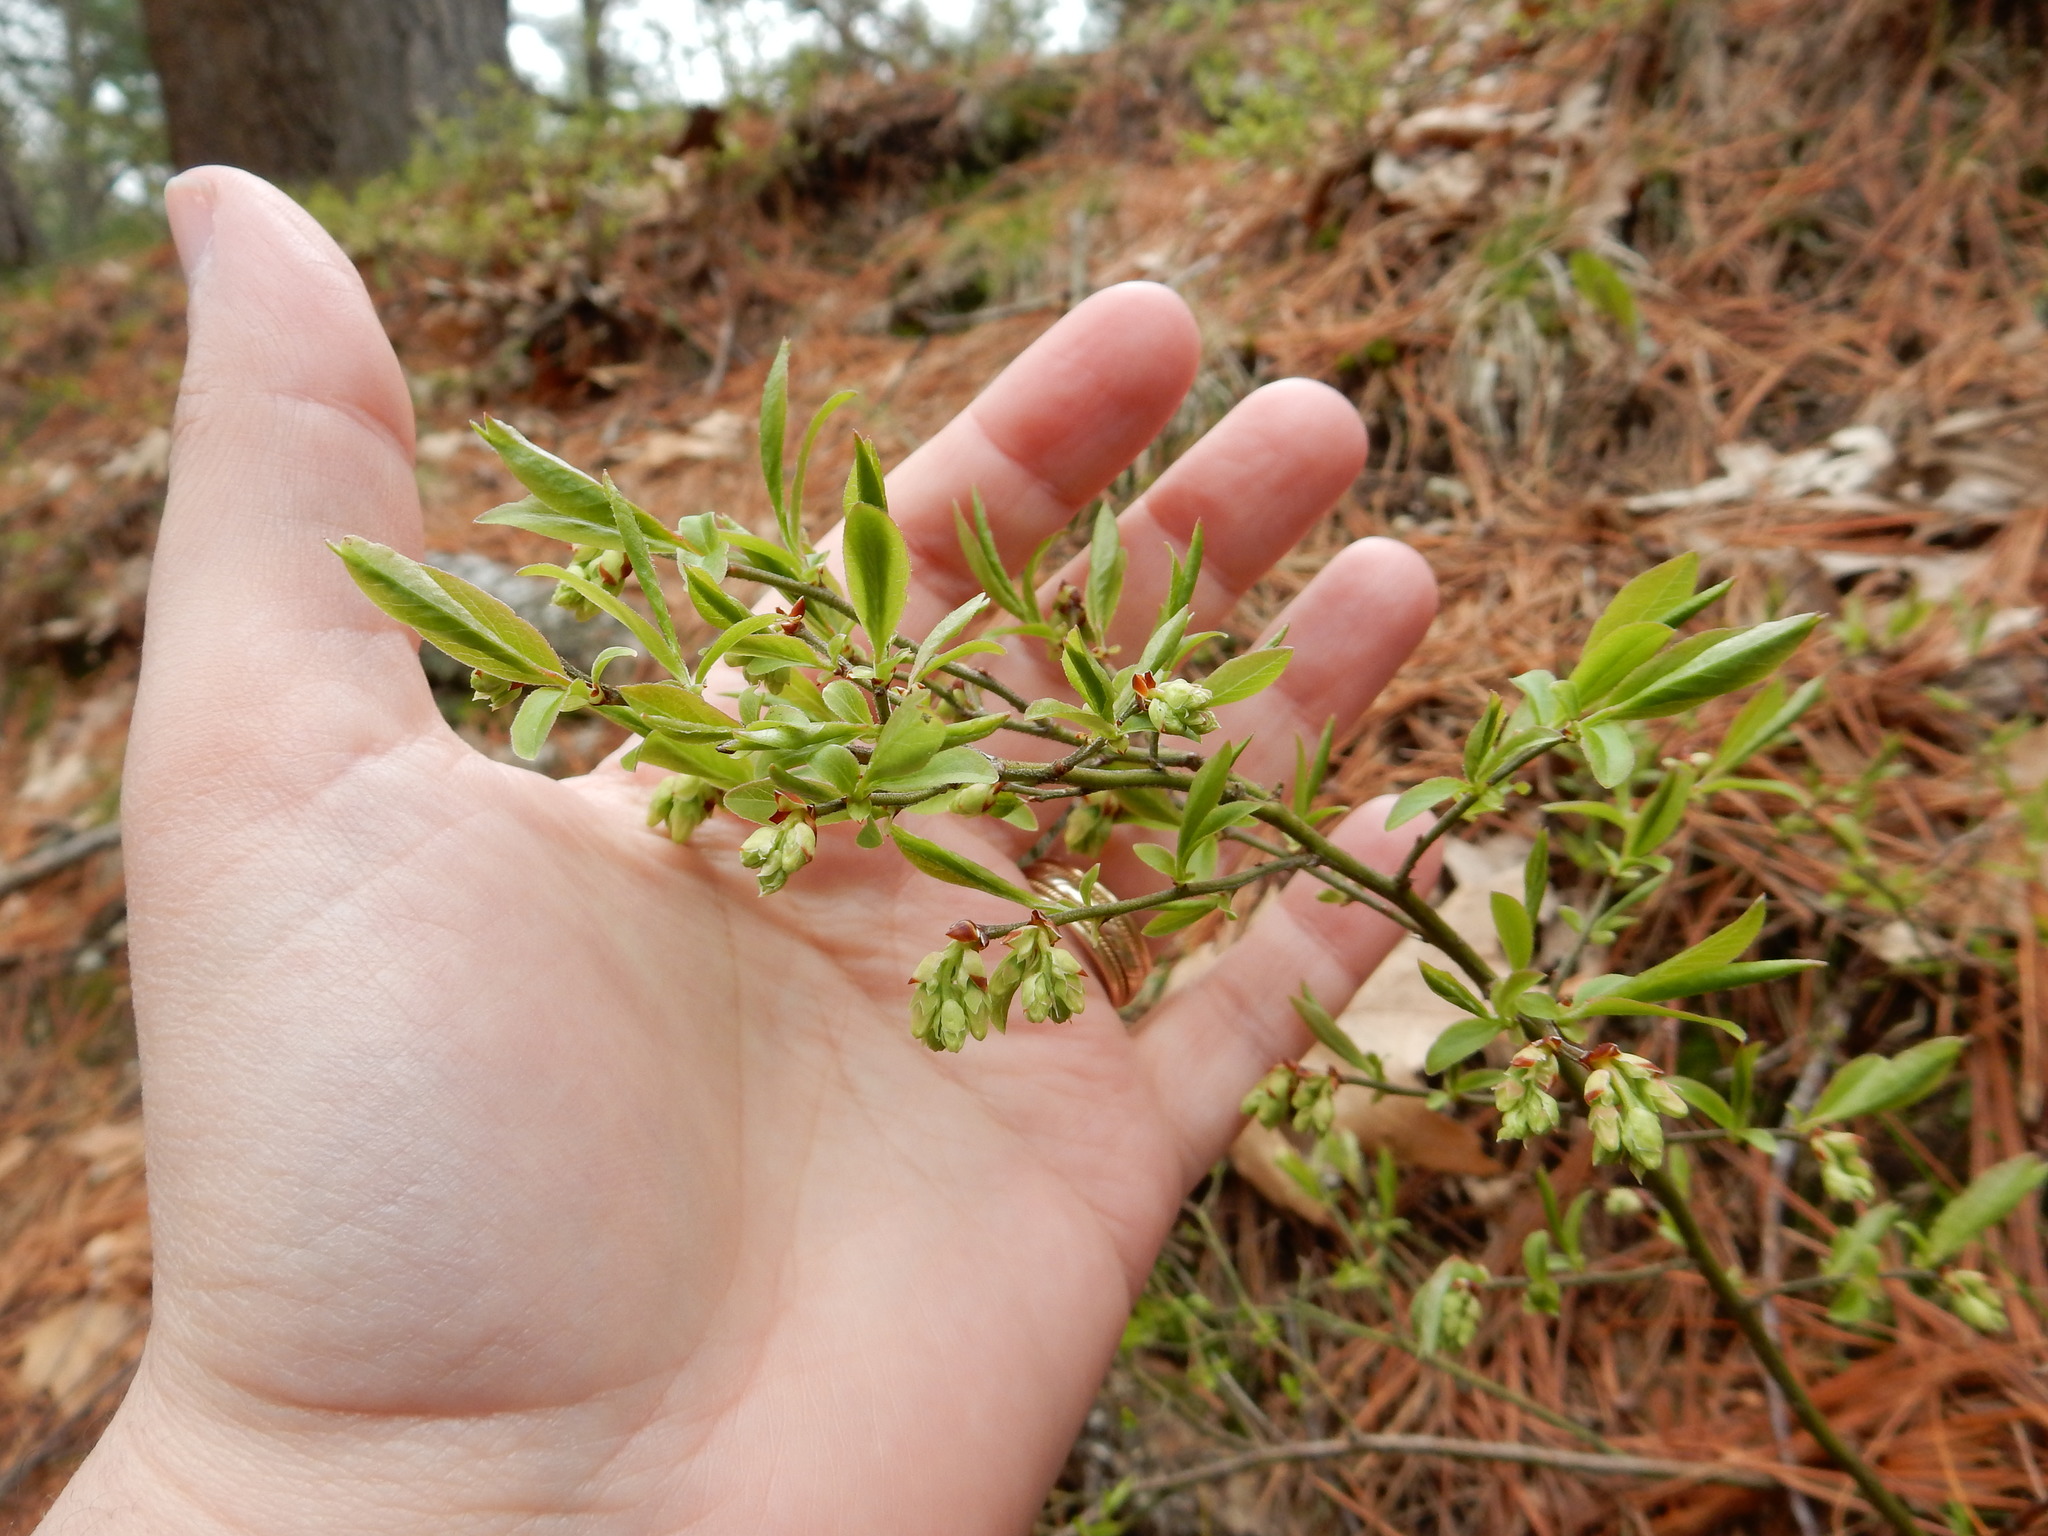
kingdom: Plantae
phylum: Tracheophyta
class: Magnoliopsida
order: Ericales
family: Ericaceae
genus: Vaccinium
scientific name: Vaccinium angustifolium
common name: Early lowbush blueberry
